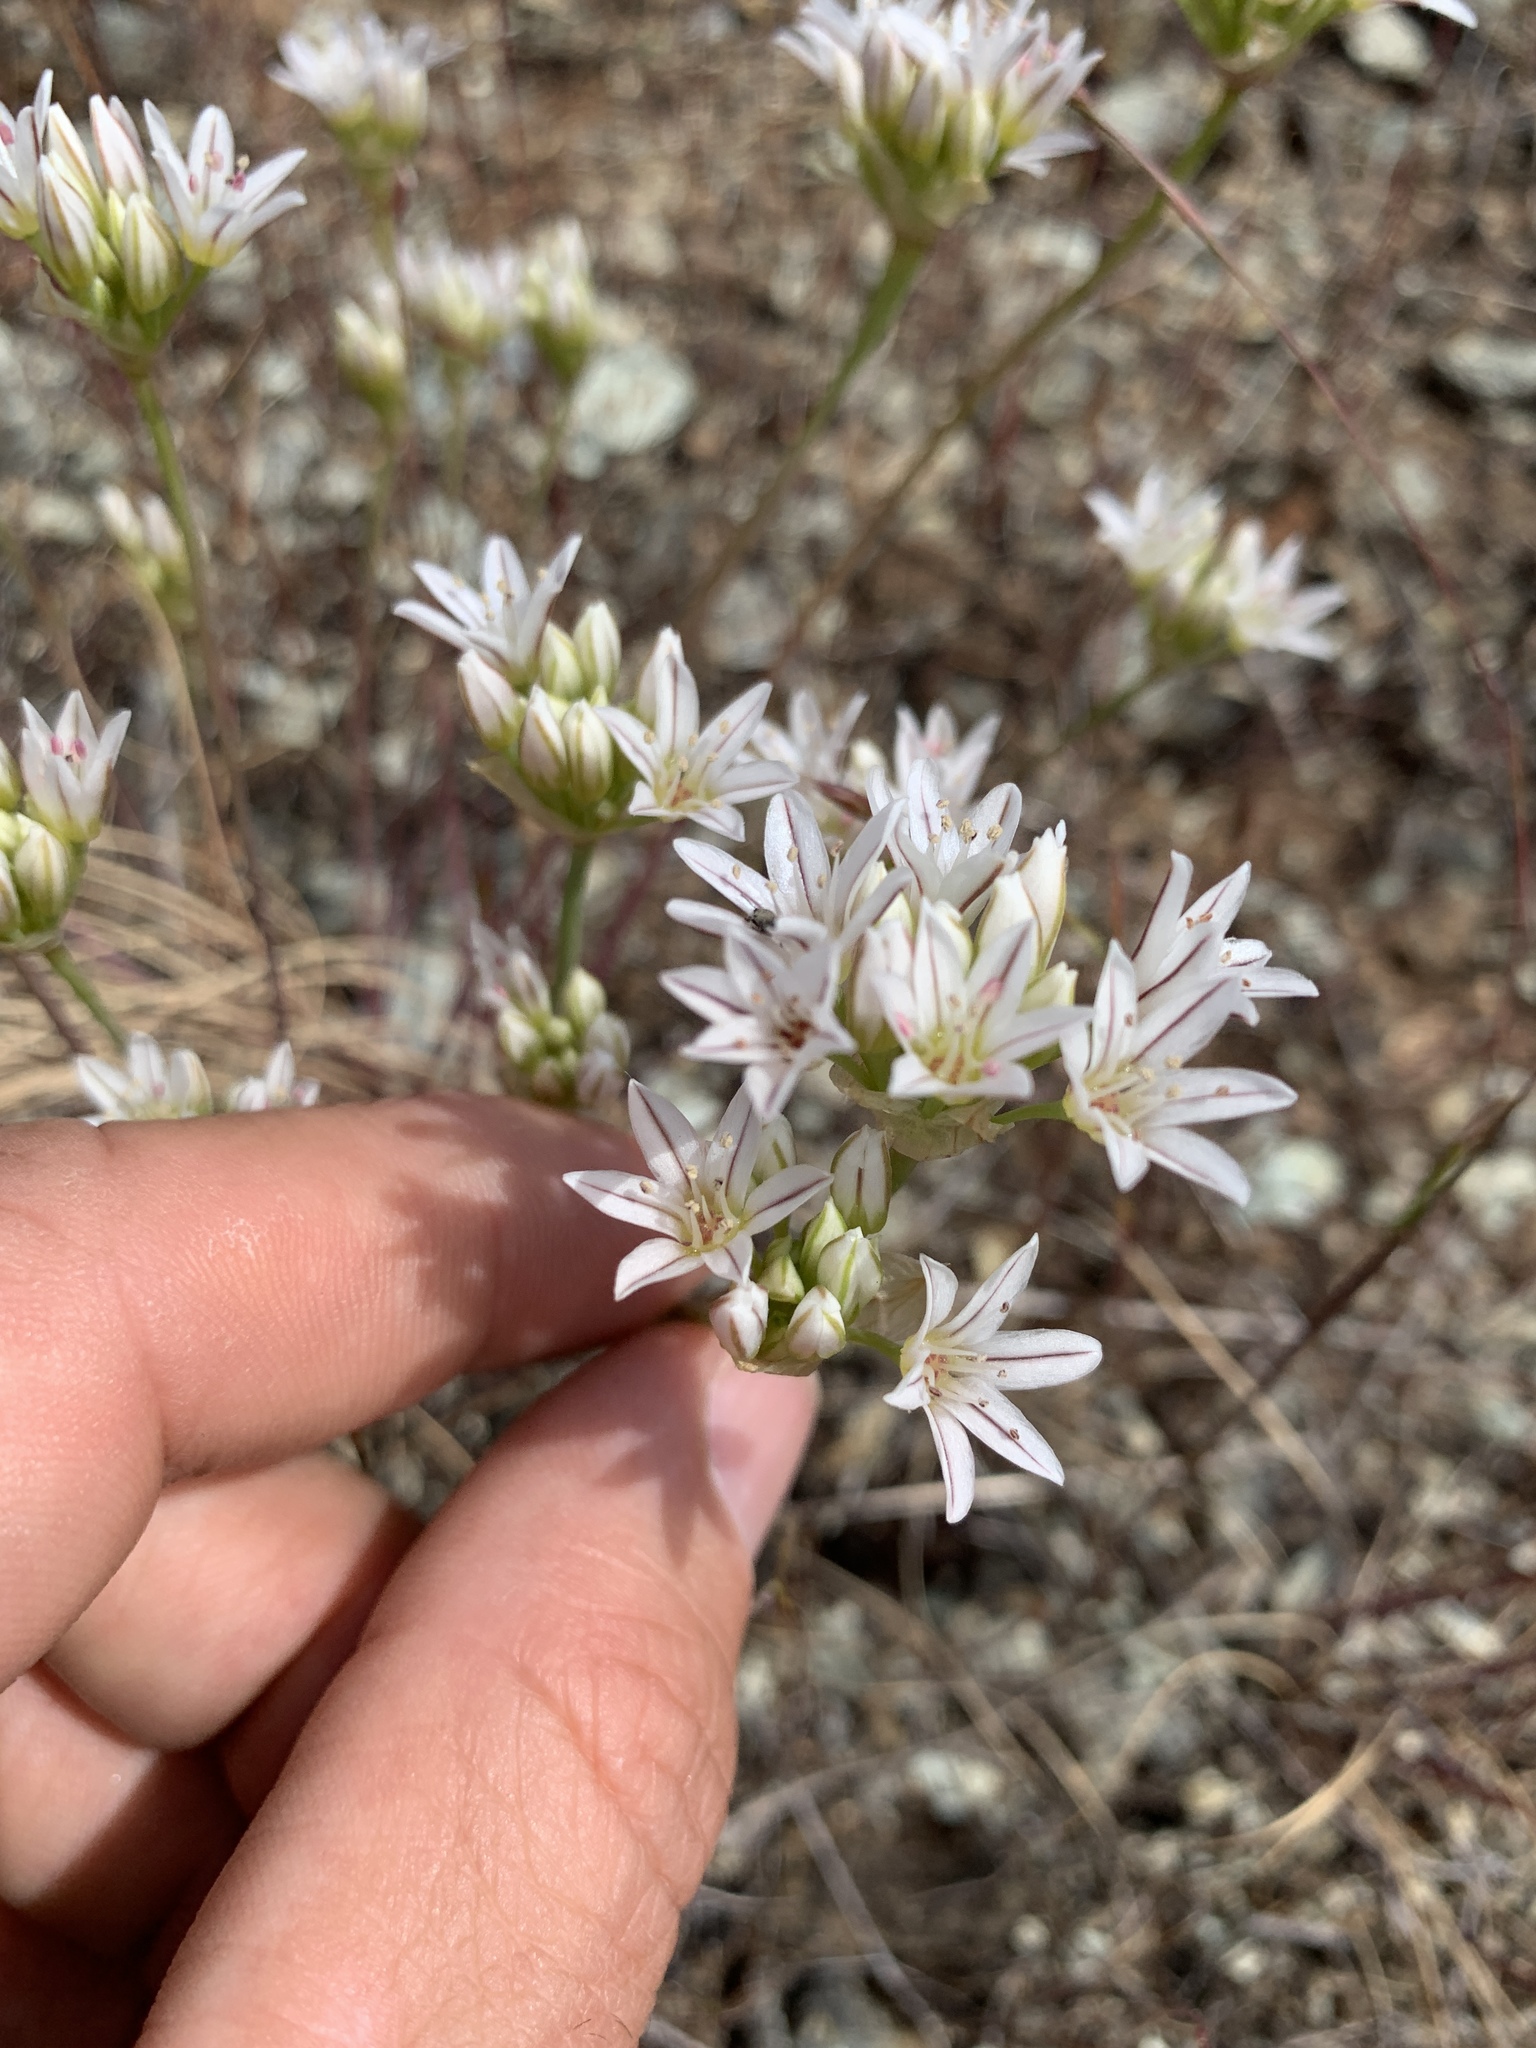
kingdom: Plantae
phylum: Tracheophyta
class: Liliopsida
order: Asparagales
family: Amaryllidaceae
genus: Allium
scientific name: Allium lacunosum
